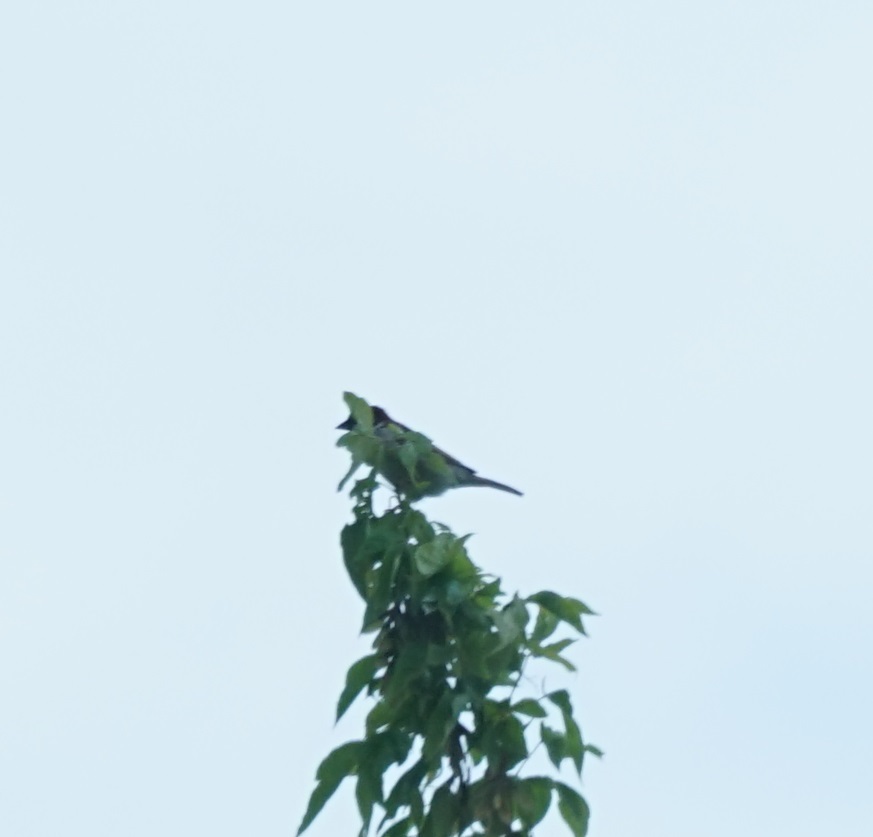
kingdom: Animalia
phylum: Chordata
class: Aves
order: Passeriformes
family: Passeridae
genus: Passer
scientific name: Passer domesticus
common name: House sparrow
